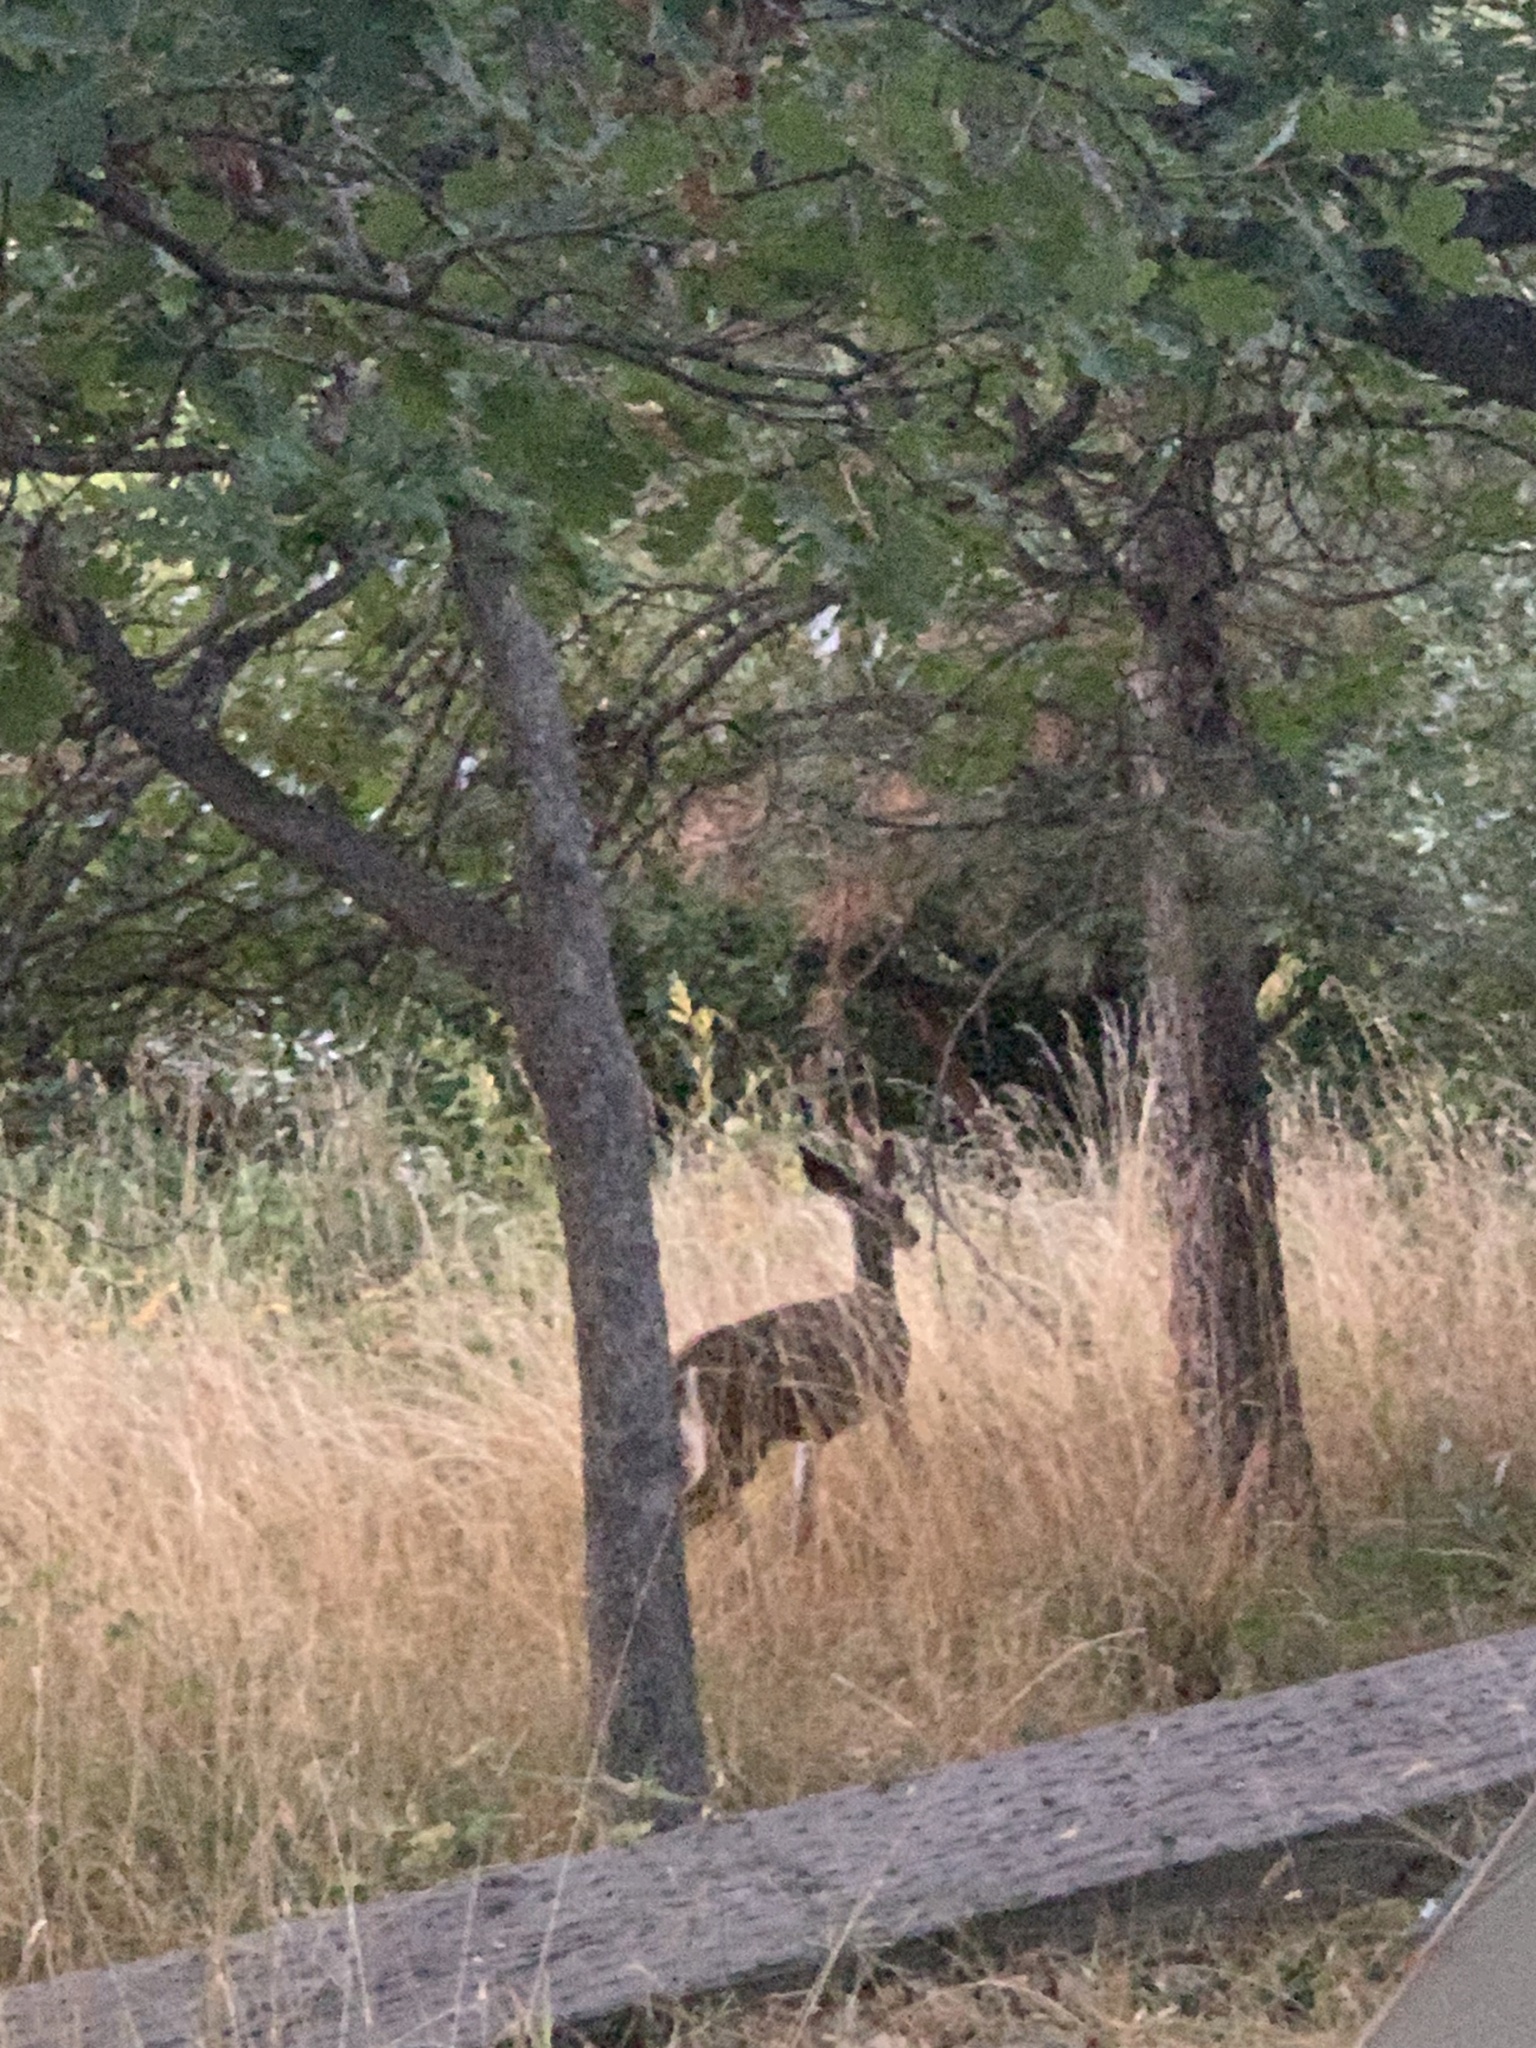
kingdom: Animalia
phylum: Chordata
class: Mammalia
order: Artiodactyla
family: Cervidae
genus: Odocoileus
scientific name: Odocoileus hemionus
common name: Mule deer
